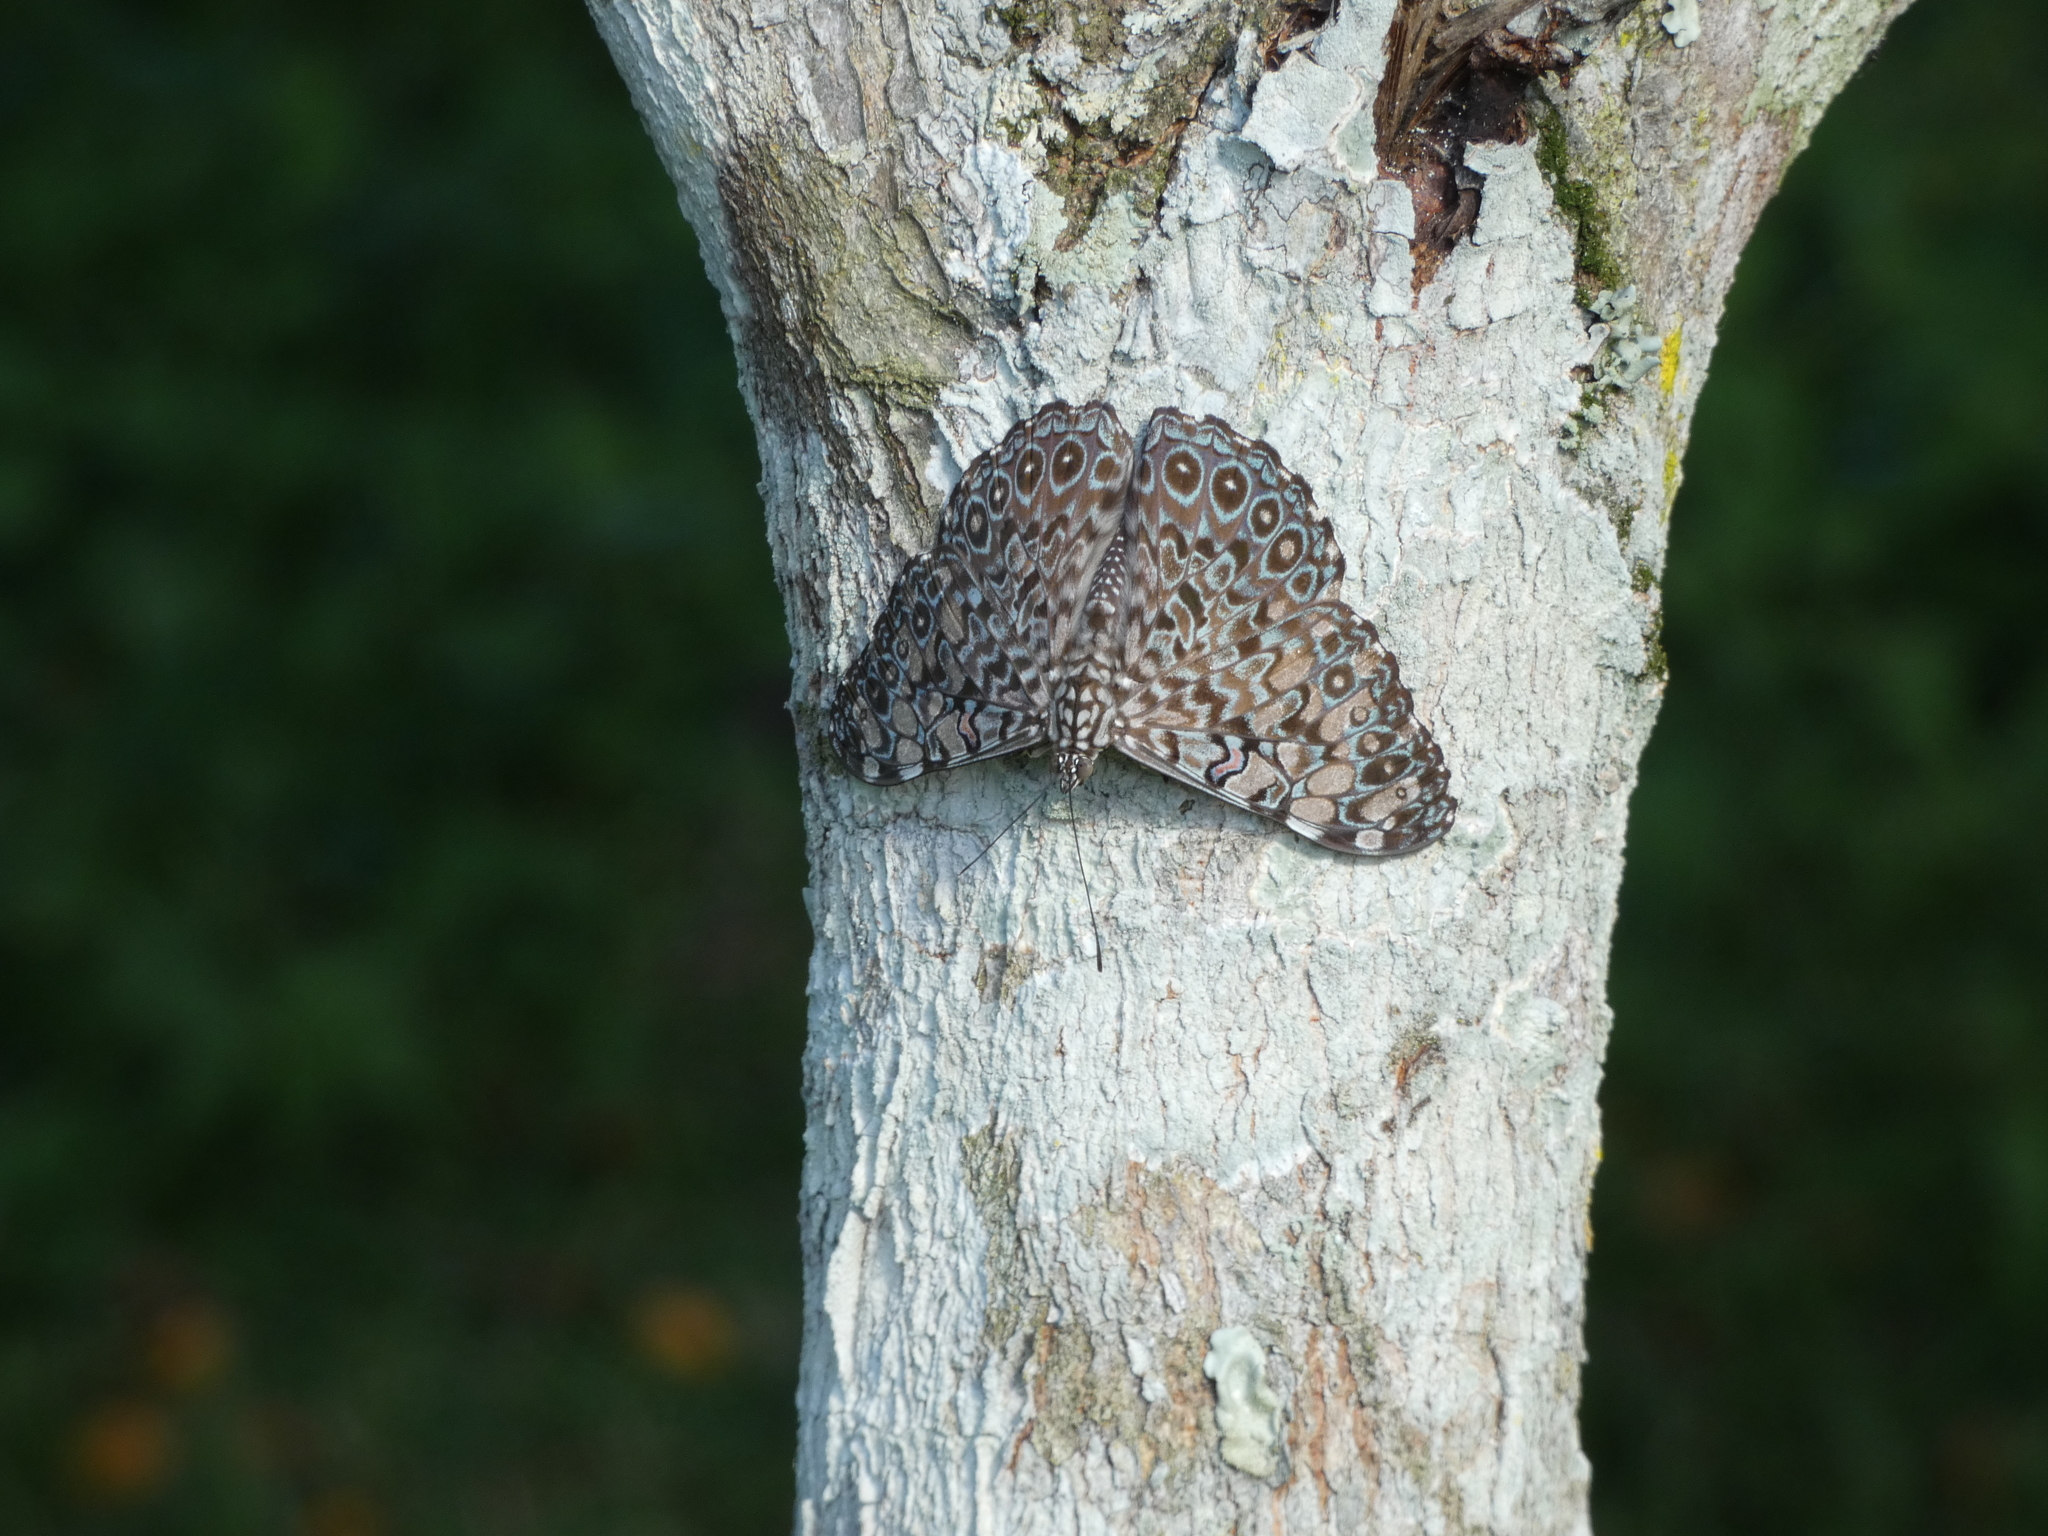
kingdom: Animalia
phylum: Arthropoda
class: Insecta
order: Lepidoptera
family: Nymphalidae
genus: Hamadryas
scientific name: Hamadryas feronia
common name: Variable cracker
